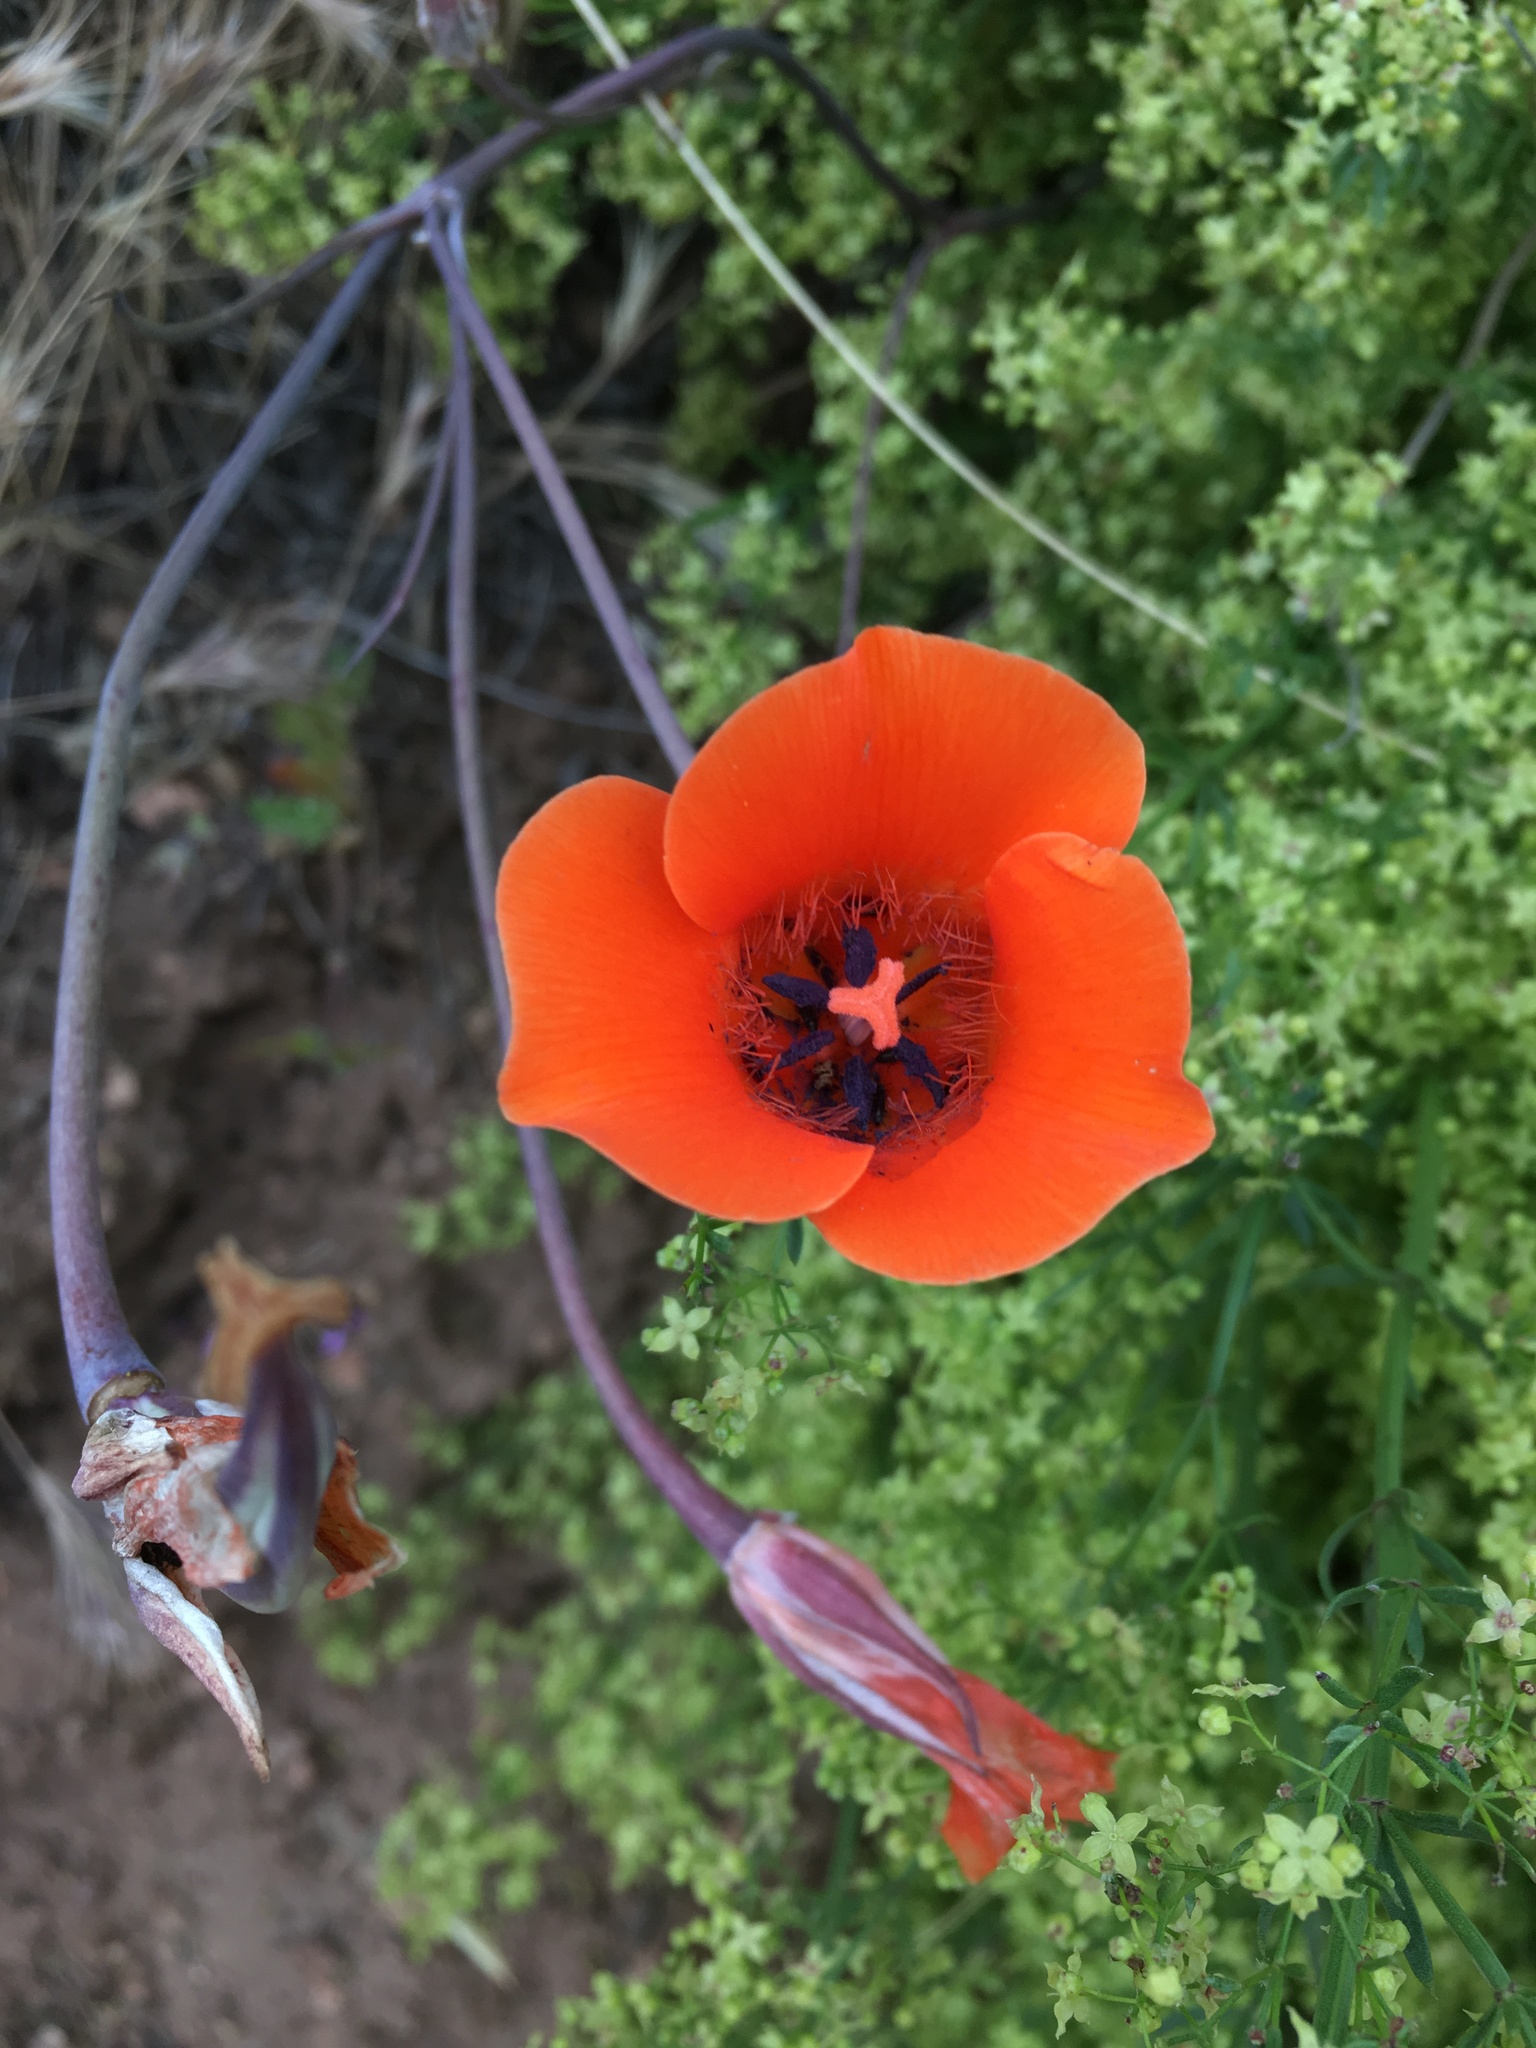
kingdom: Plantae
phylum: Tracheophyta
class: Liliopsida
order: Liliales
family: Liliaceae
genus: Calochortus
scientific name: Calochortus kennedyi
